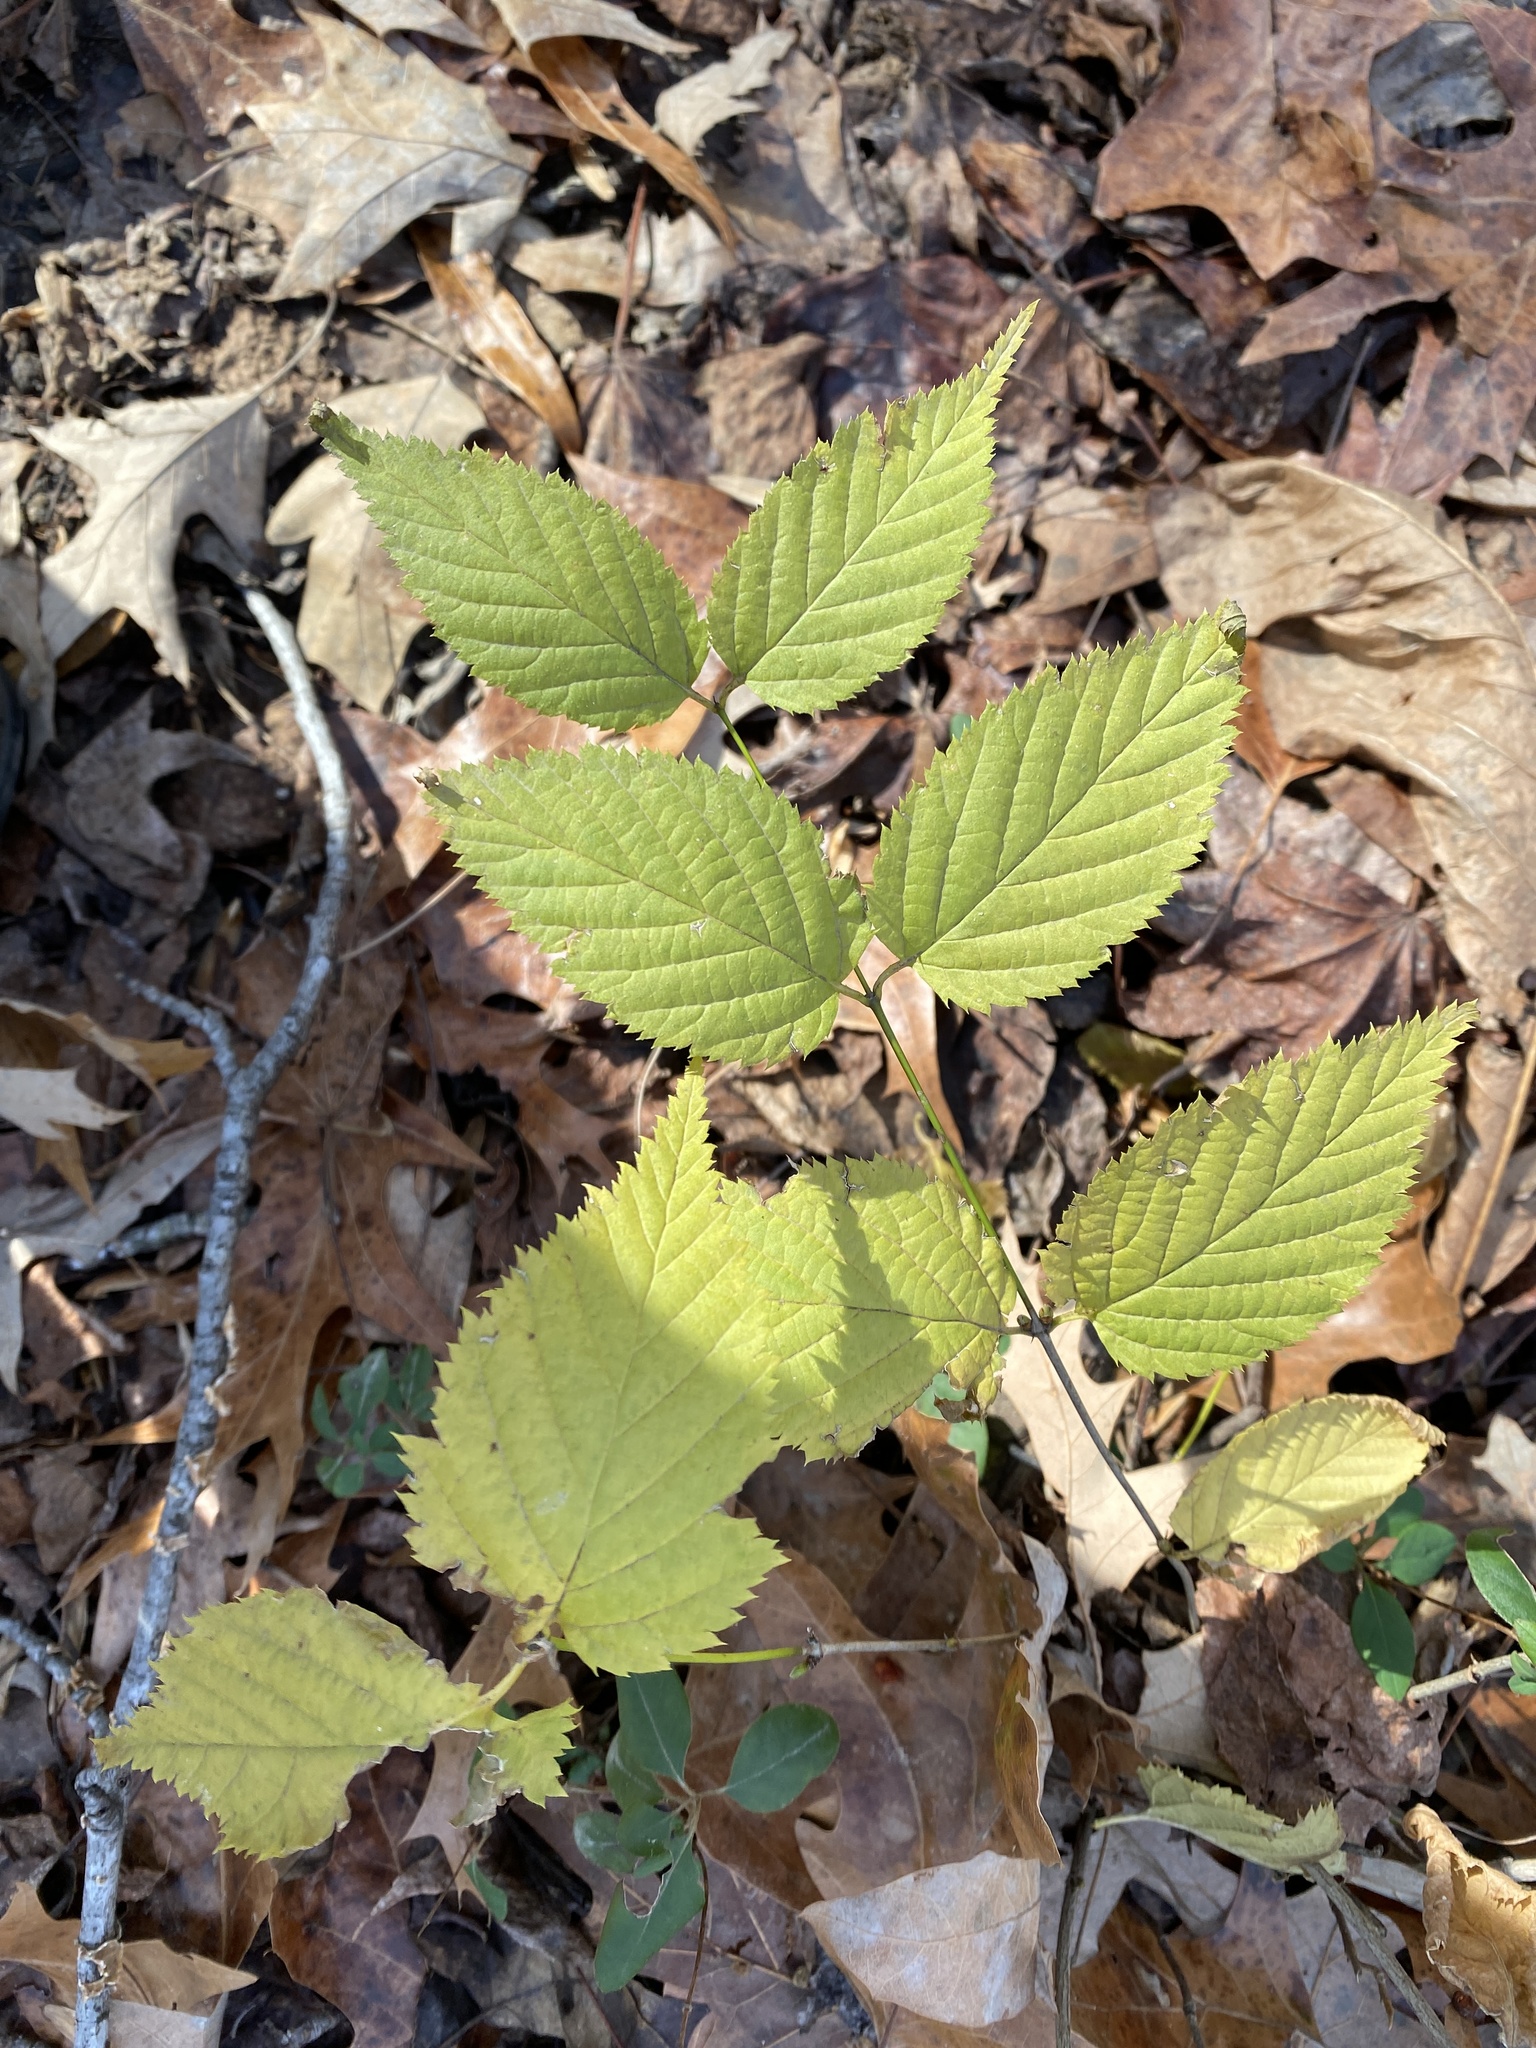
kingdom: Plantae
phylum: Tracheophyta
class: Magnoliopsida
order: Rosales
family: Rosaceae
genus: Rhodotypos
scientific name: Rhodotypos scandens
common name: Jetbead
